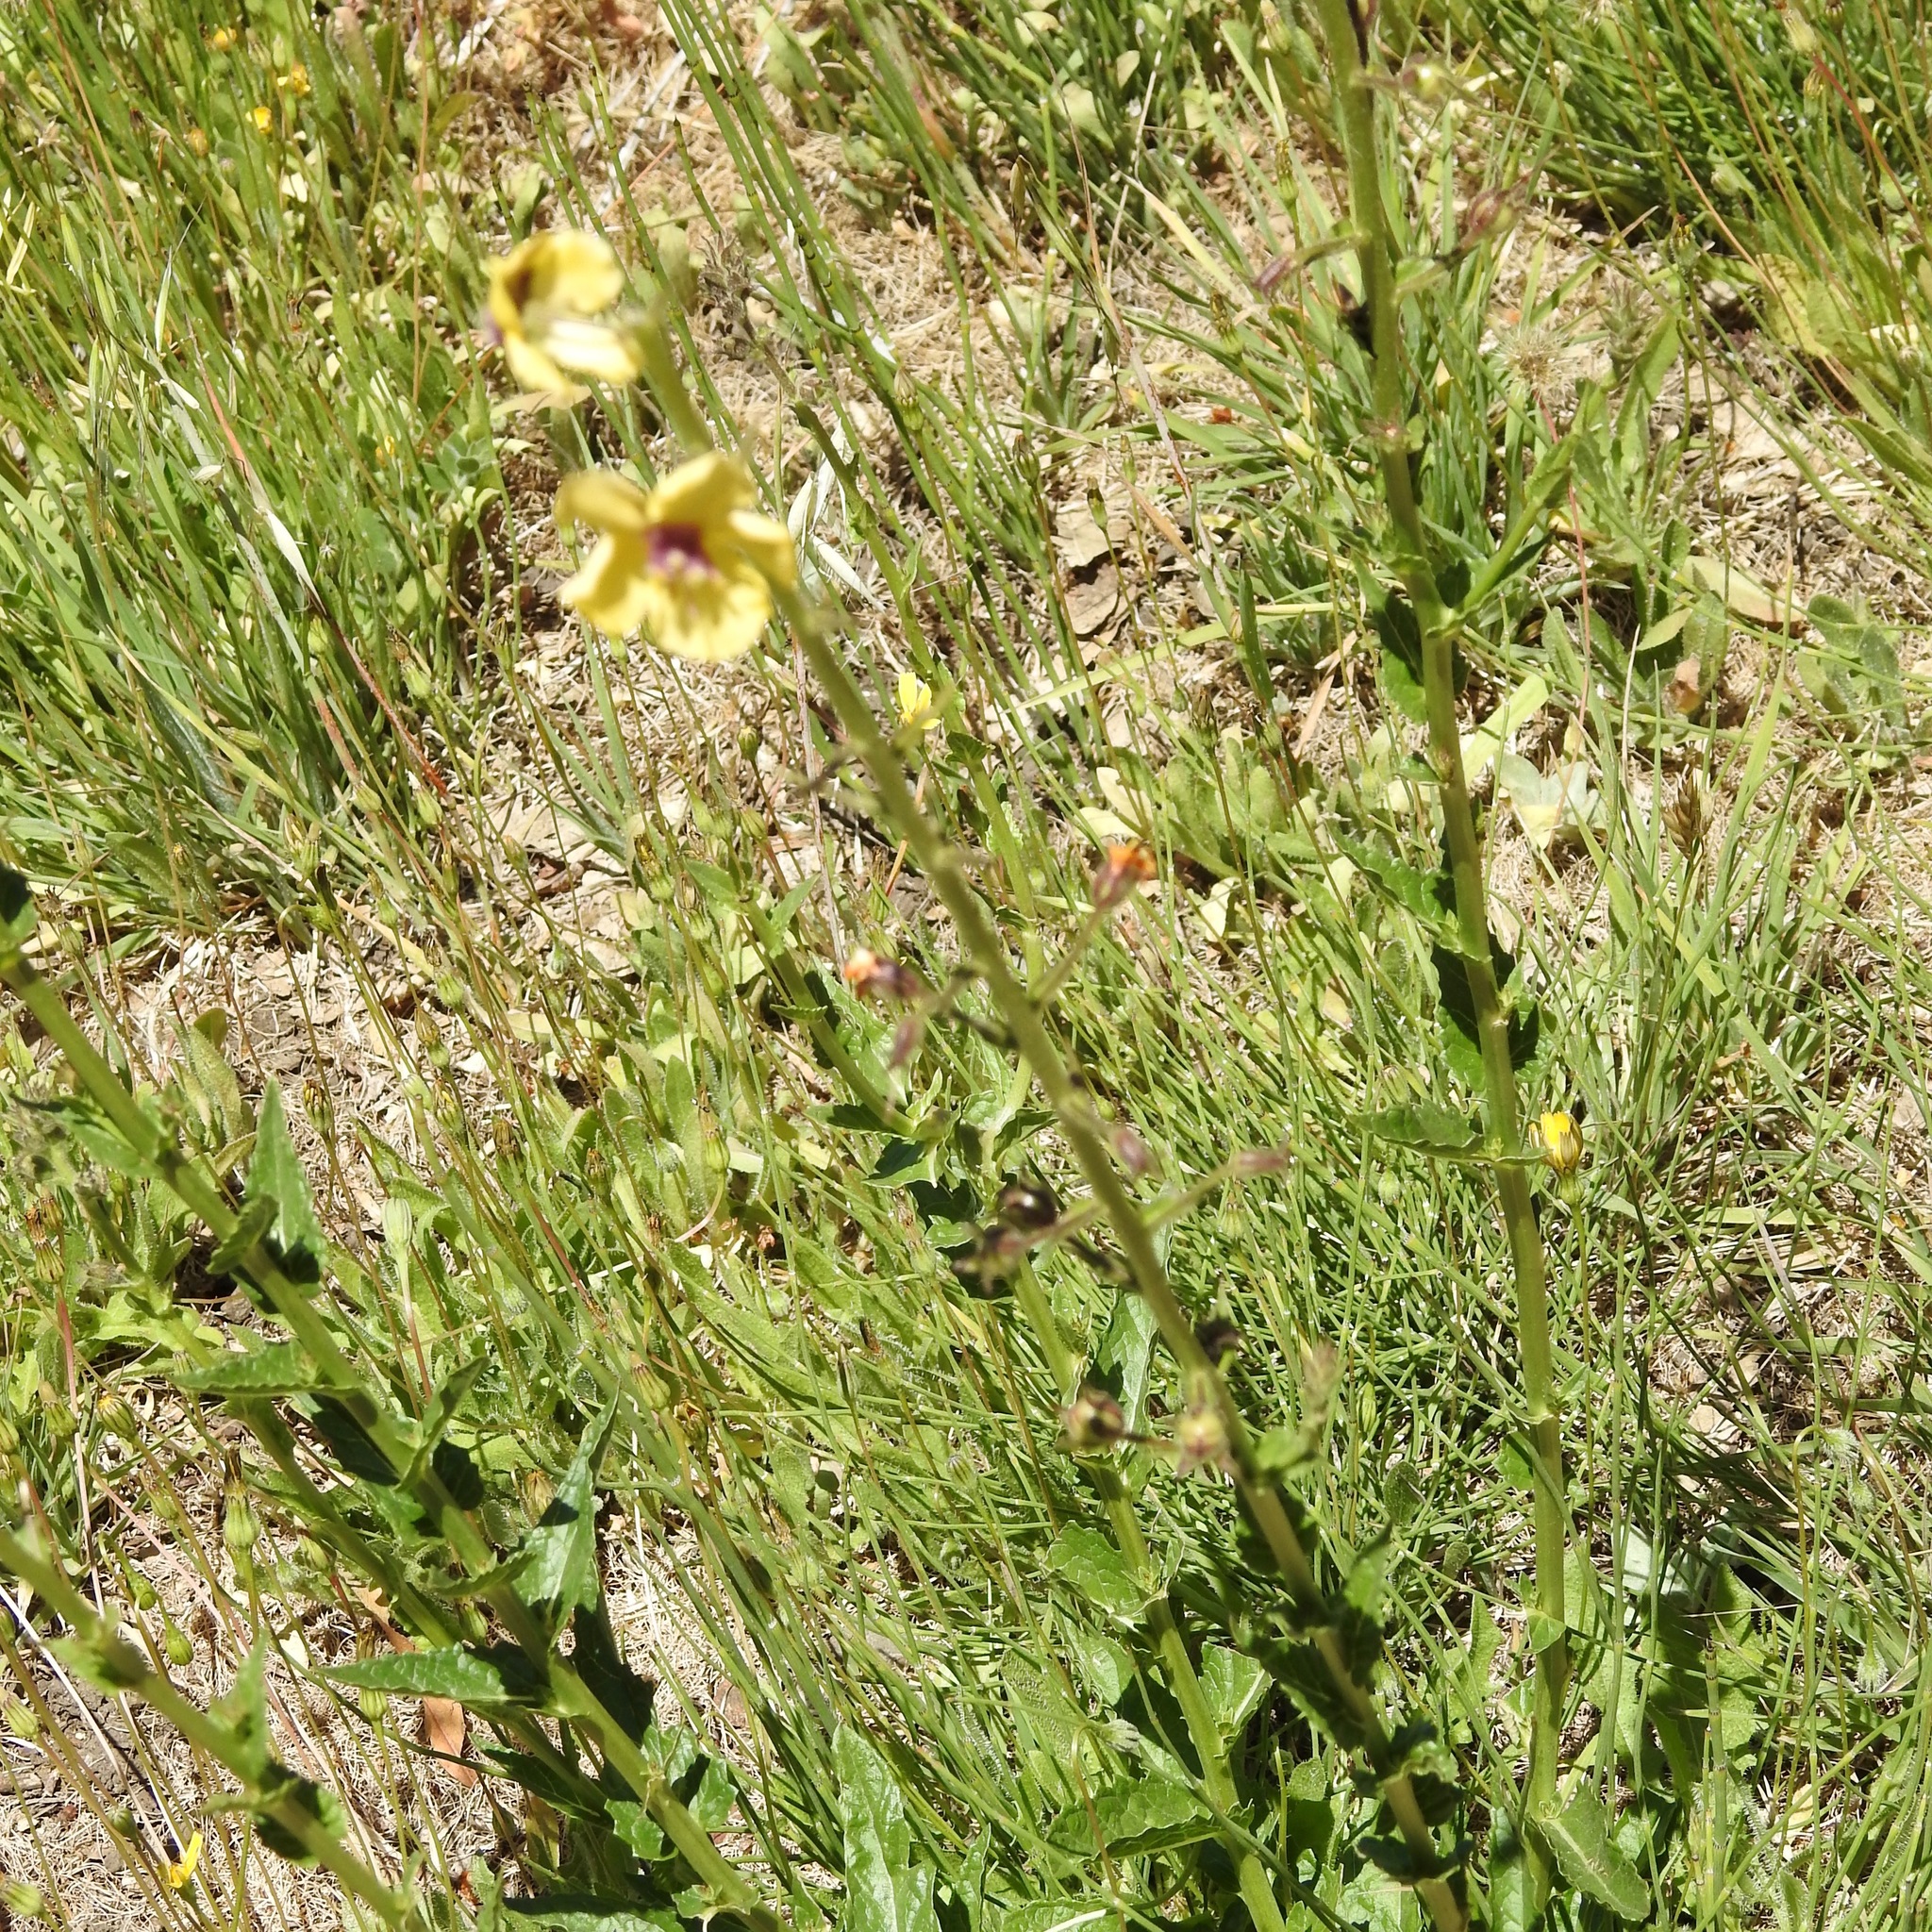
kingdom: Plantae
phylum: Tracheophyta
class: Magnoliopsida
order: Lamiales
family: Scrophulariaceae
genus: Verbascum
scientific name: Verbascum blattaria
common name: Moth mullein
